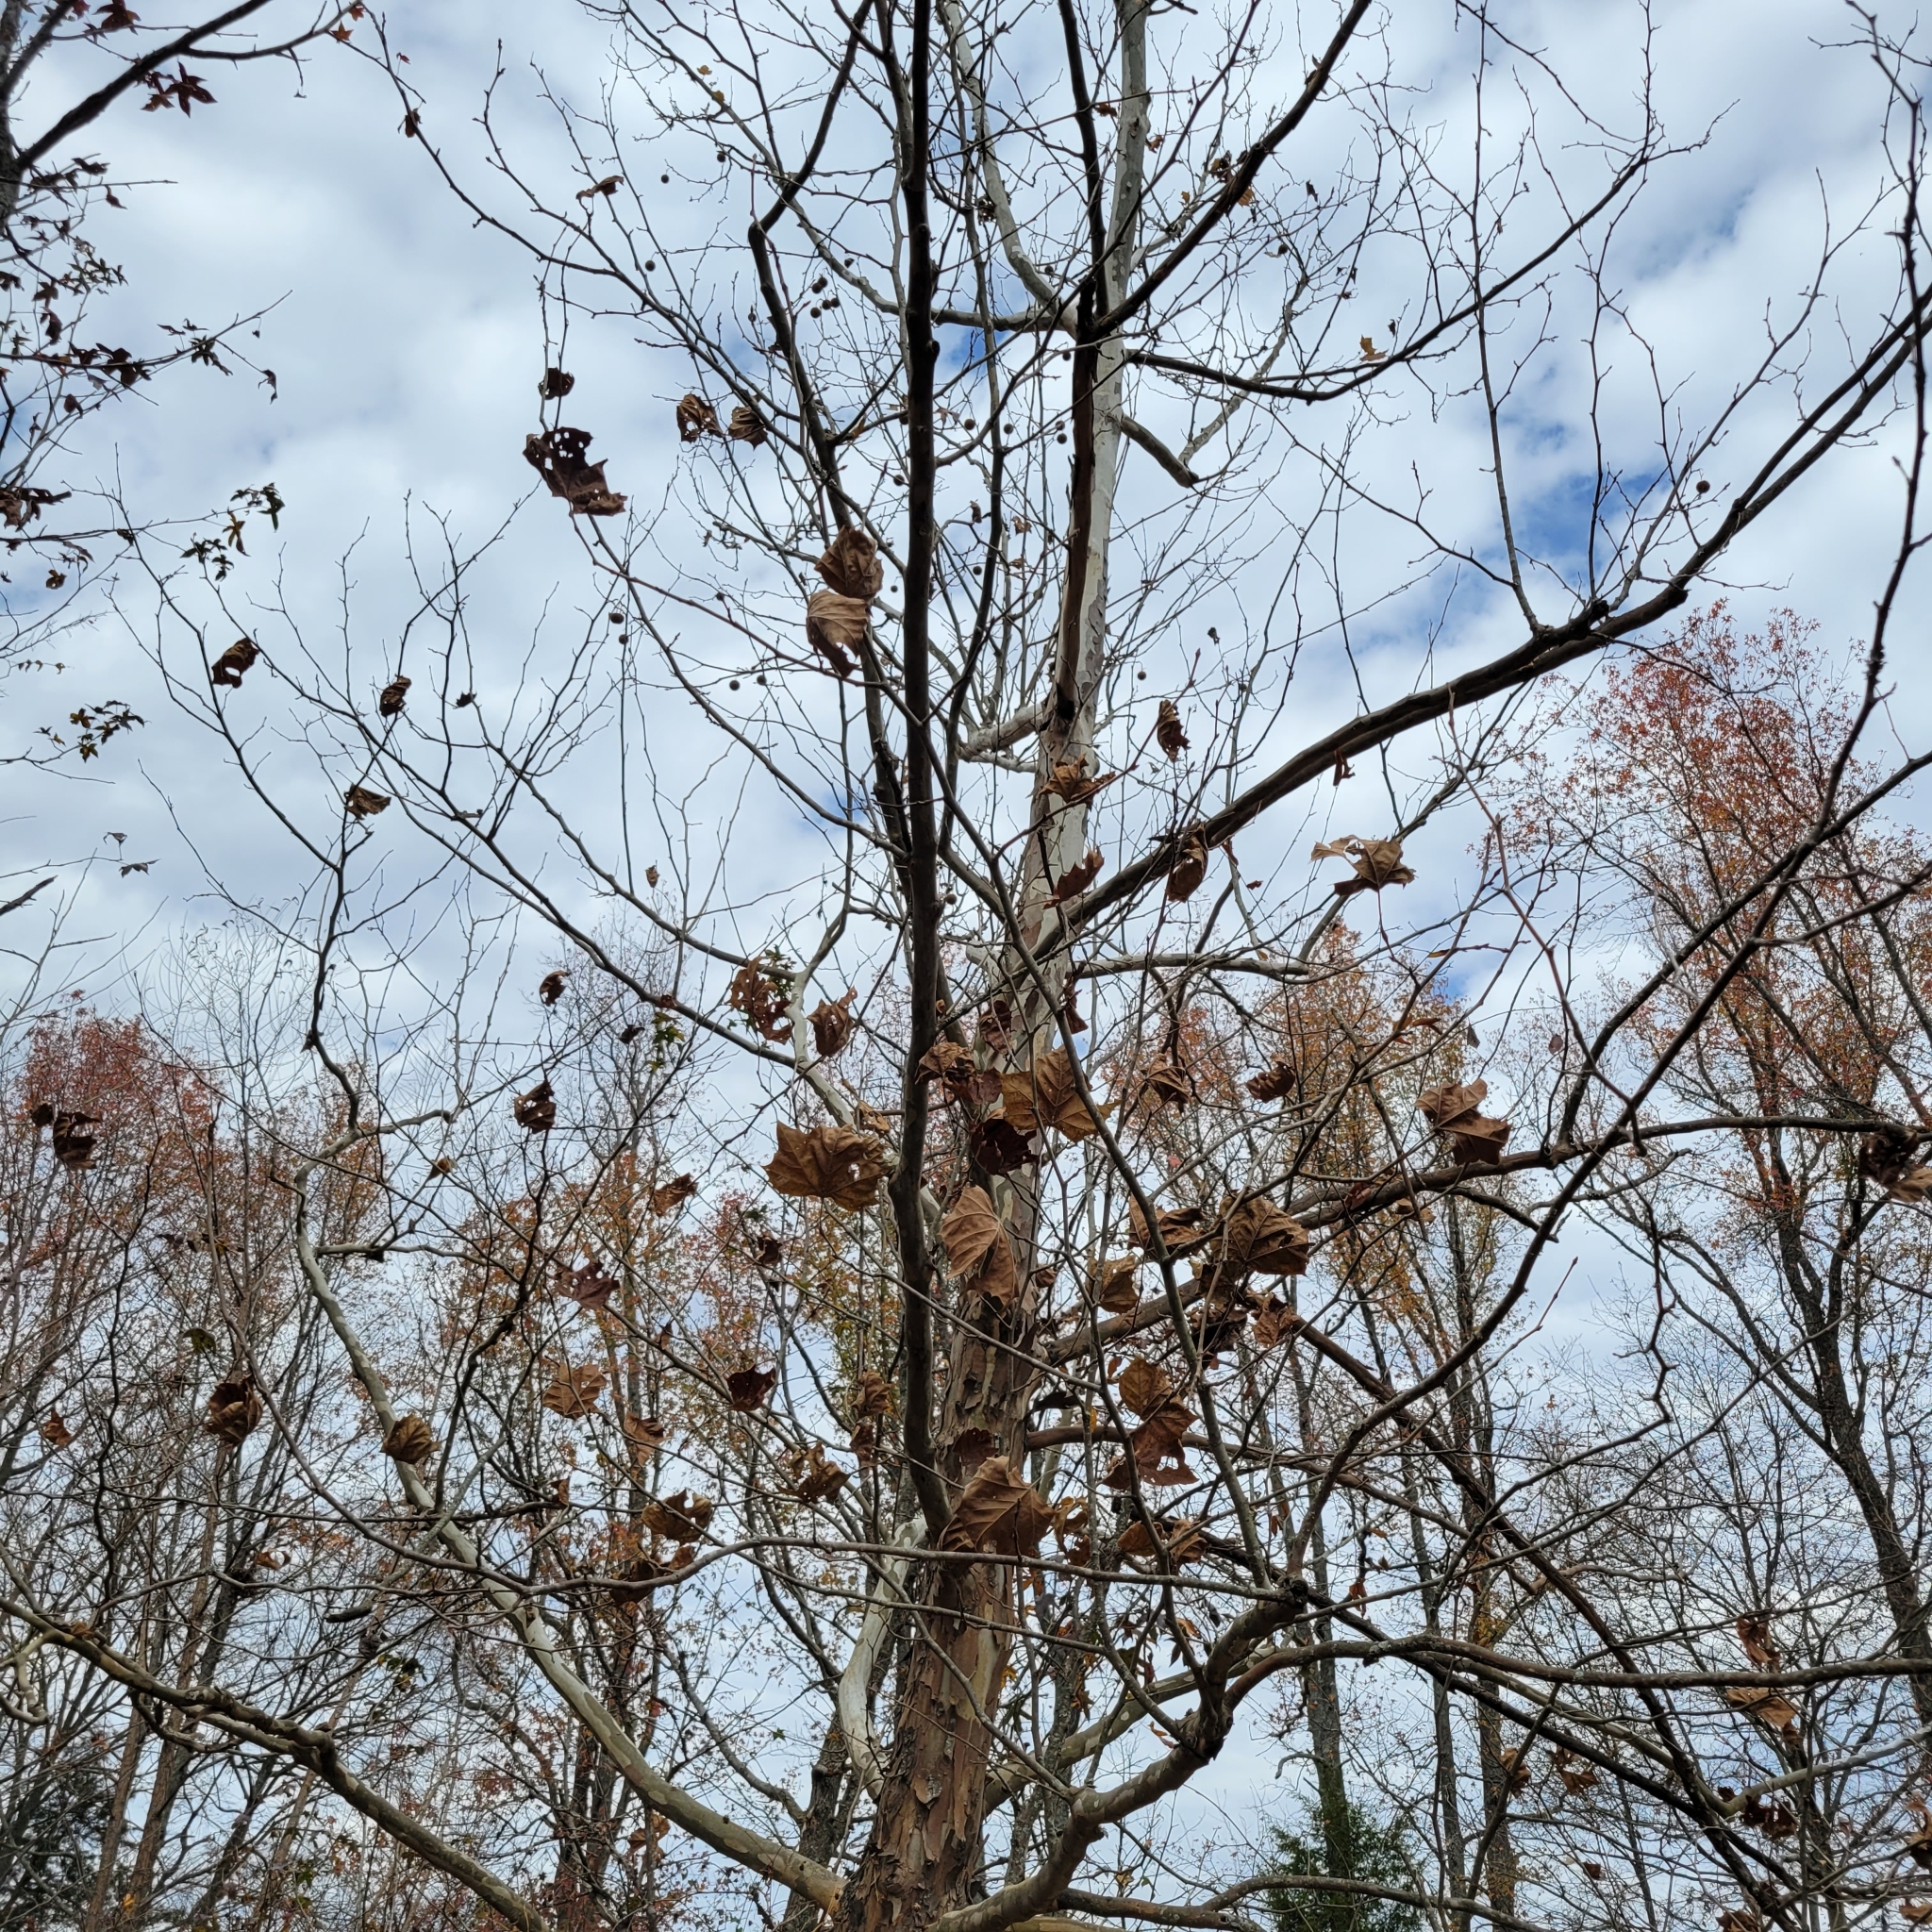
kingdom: Plantae
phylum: Tracheophyta
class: Magnoliopsida
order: Proteales
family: Platanaceae
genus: Platanus
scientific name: Platanus occidentalis
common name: American sycamore
